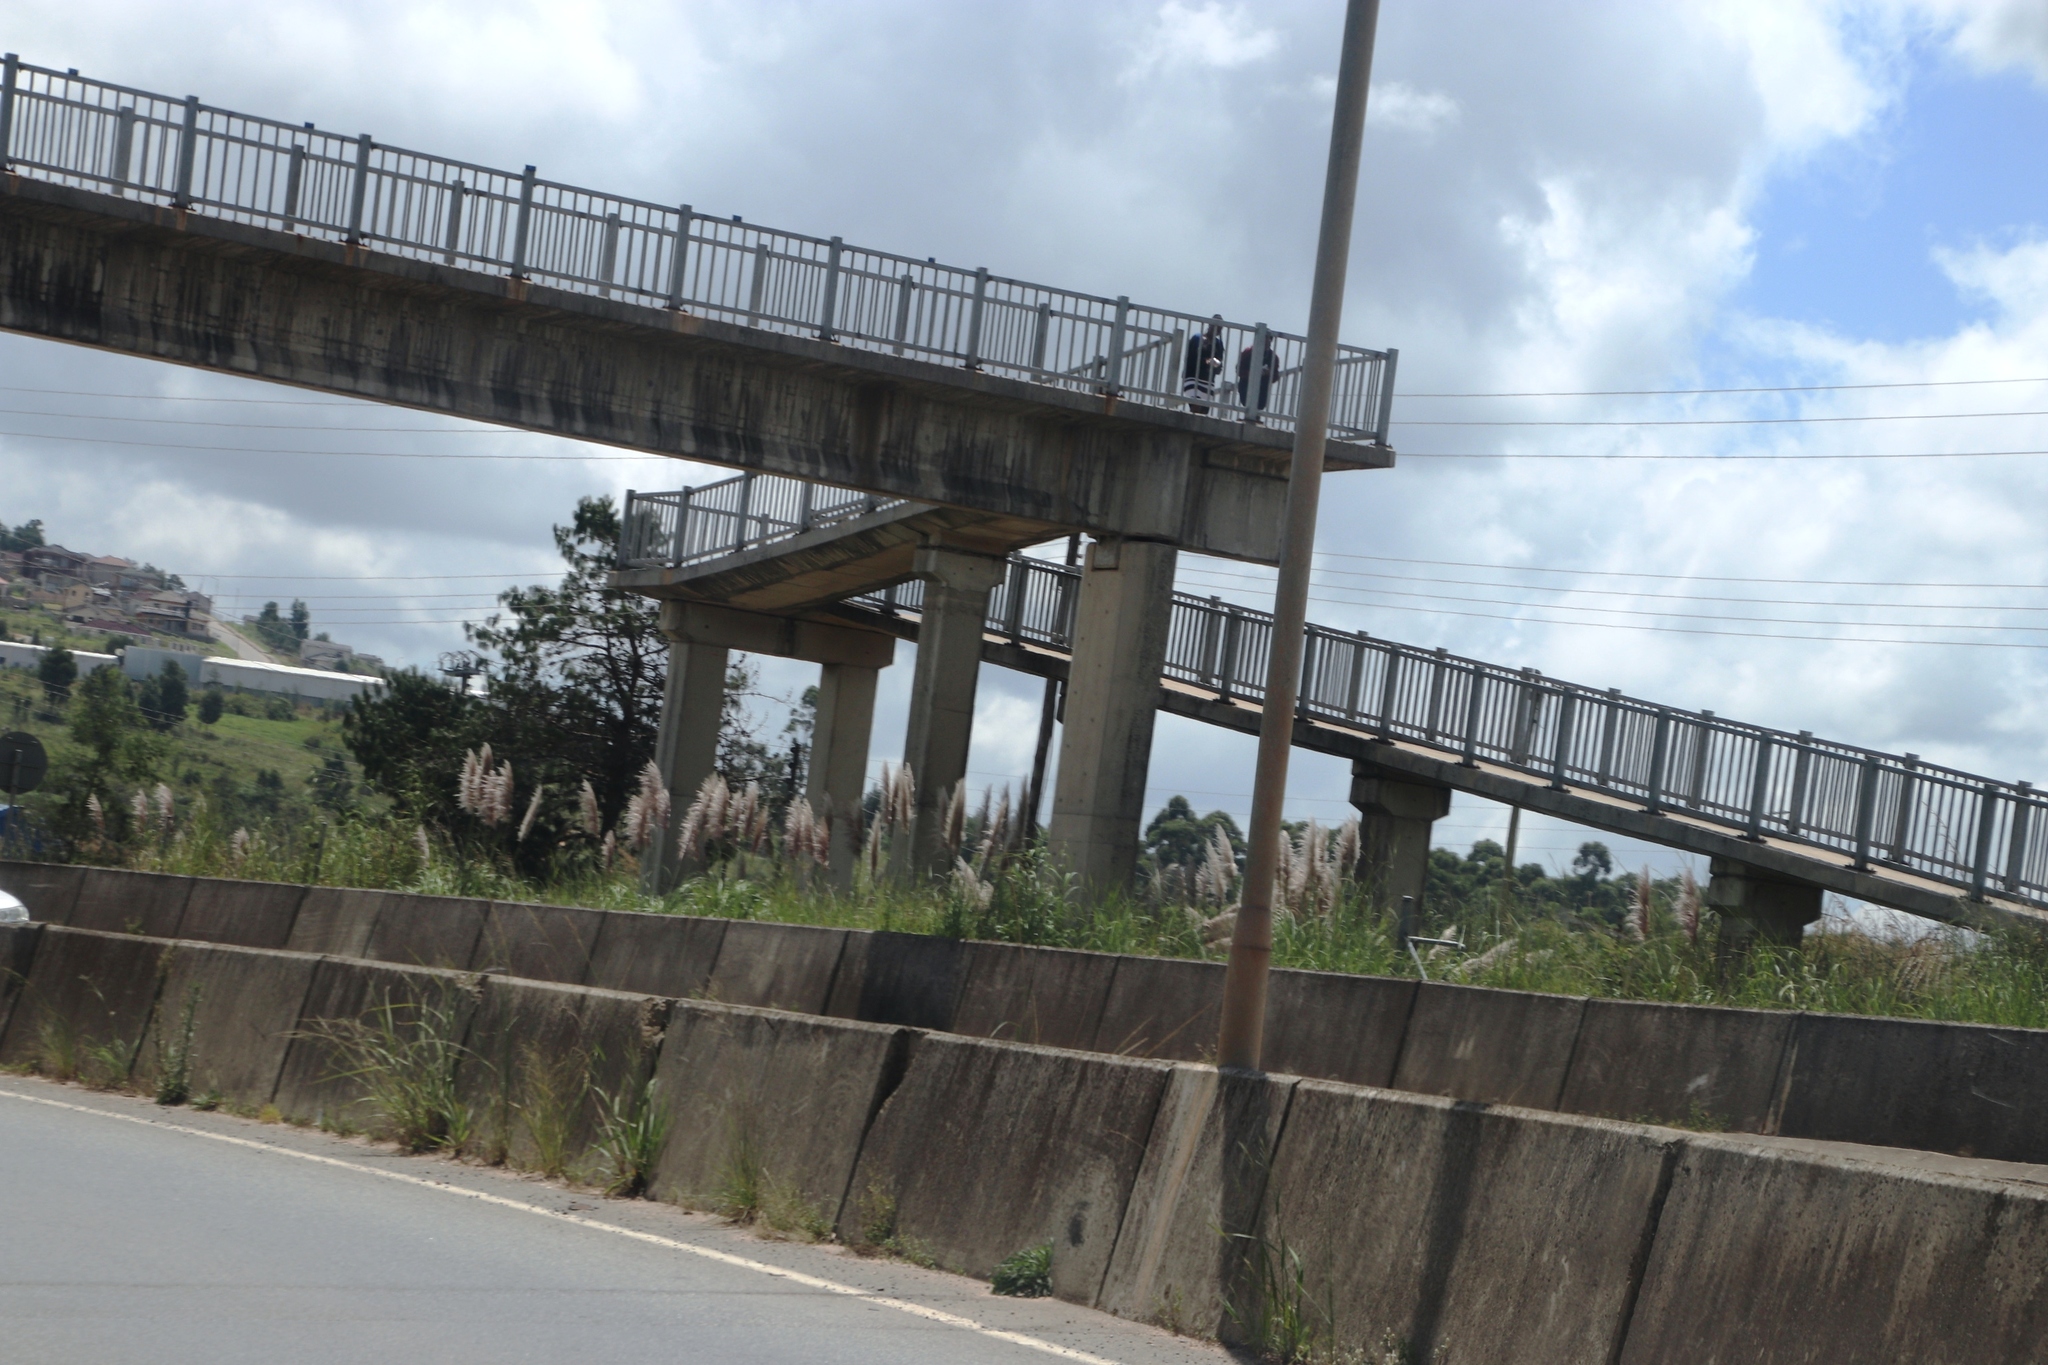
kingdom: Plantae
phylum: Tracheophyta
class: Liliopsida
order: Poales
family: Poaceae
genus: Cortaderia
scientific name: Cortaderia selloana
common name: Uruguayan pampas grass
